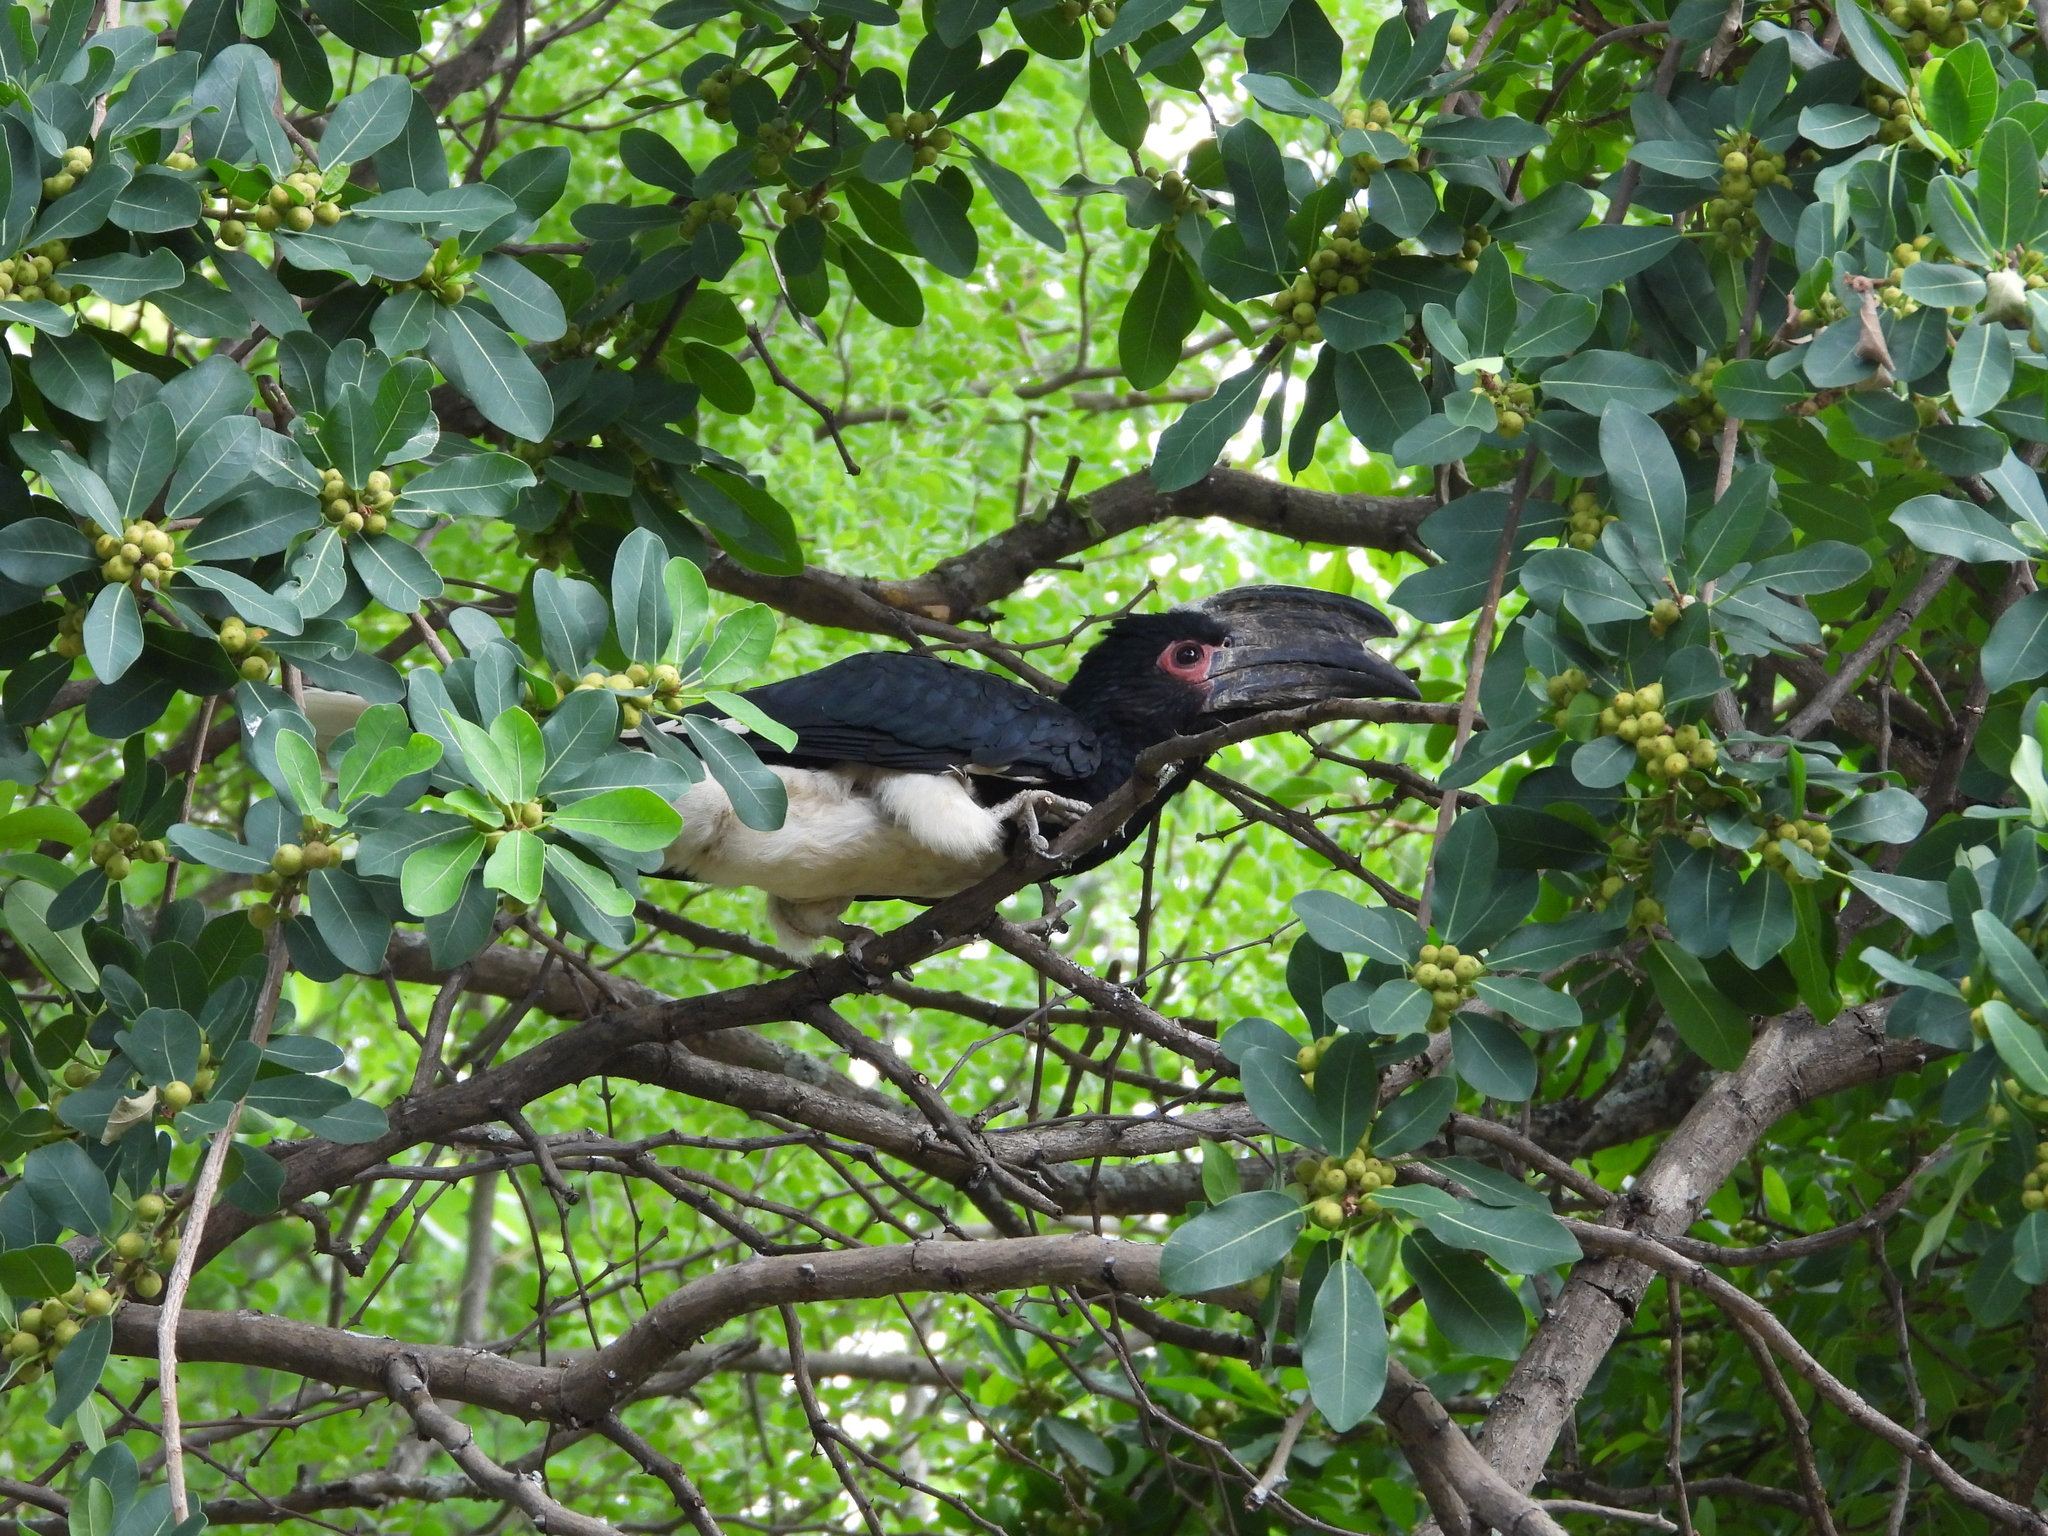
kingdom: Animalia
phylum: Chordata
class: Aves
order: Bucerotiformes
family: Bucerotidae
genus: Bycanistes
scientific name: Bycanistes bucinator
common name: Trumpeter hornbill
